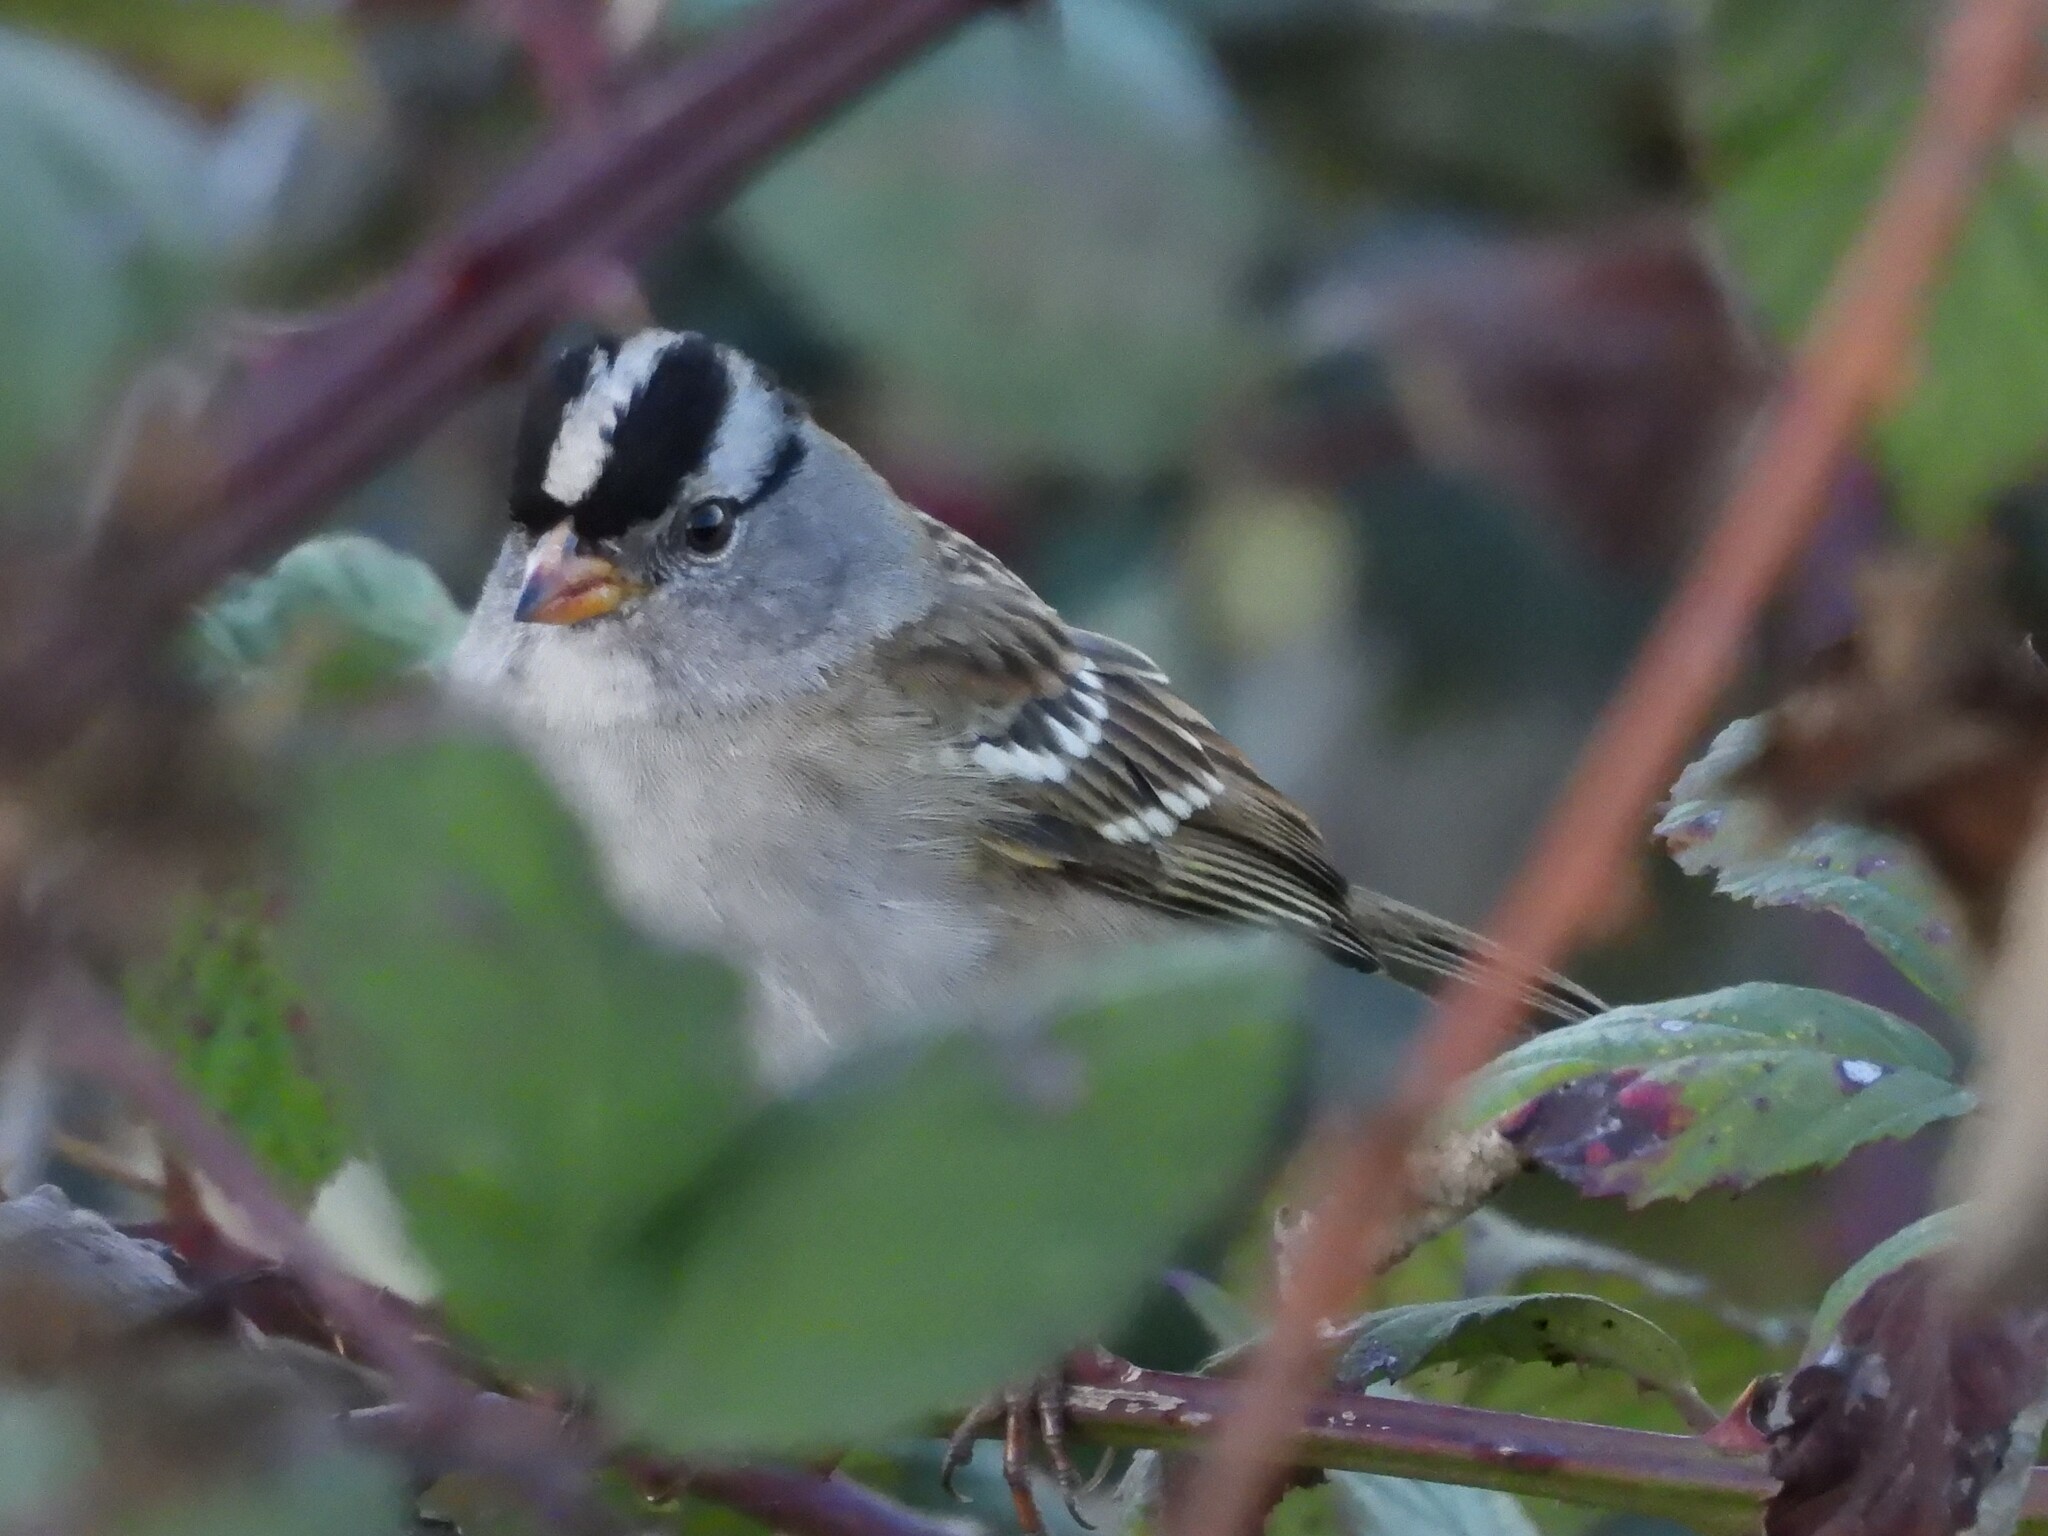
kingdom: Animalia
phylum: Chordata
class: Aves
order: Passeriformes
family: Passerellidae
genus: Zonotrichia
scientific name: Zonotrichia leucophrys
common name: White-crowned sparrow
